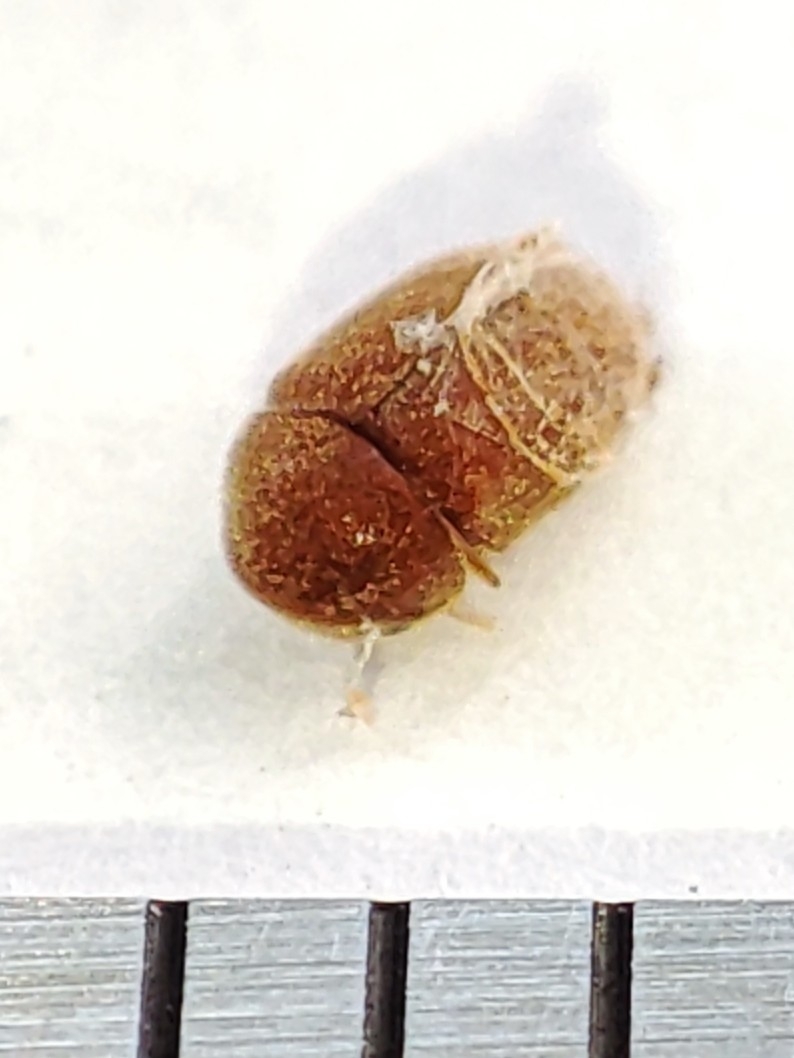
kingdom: Animalia
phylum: Arthropoda
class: Insecta
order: Coleoptera
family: Anobiidae
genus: Lasioderma
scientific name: Lasioderma serricorne
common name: Cigarette beetle
